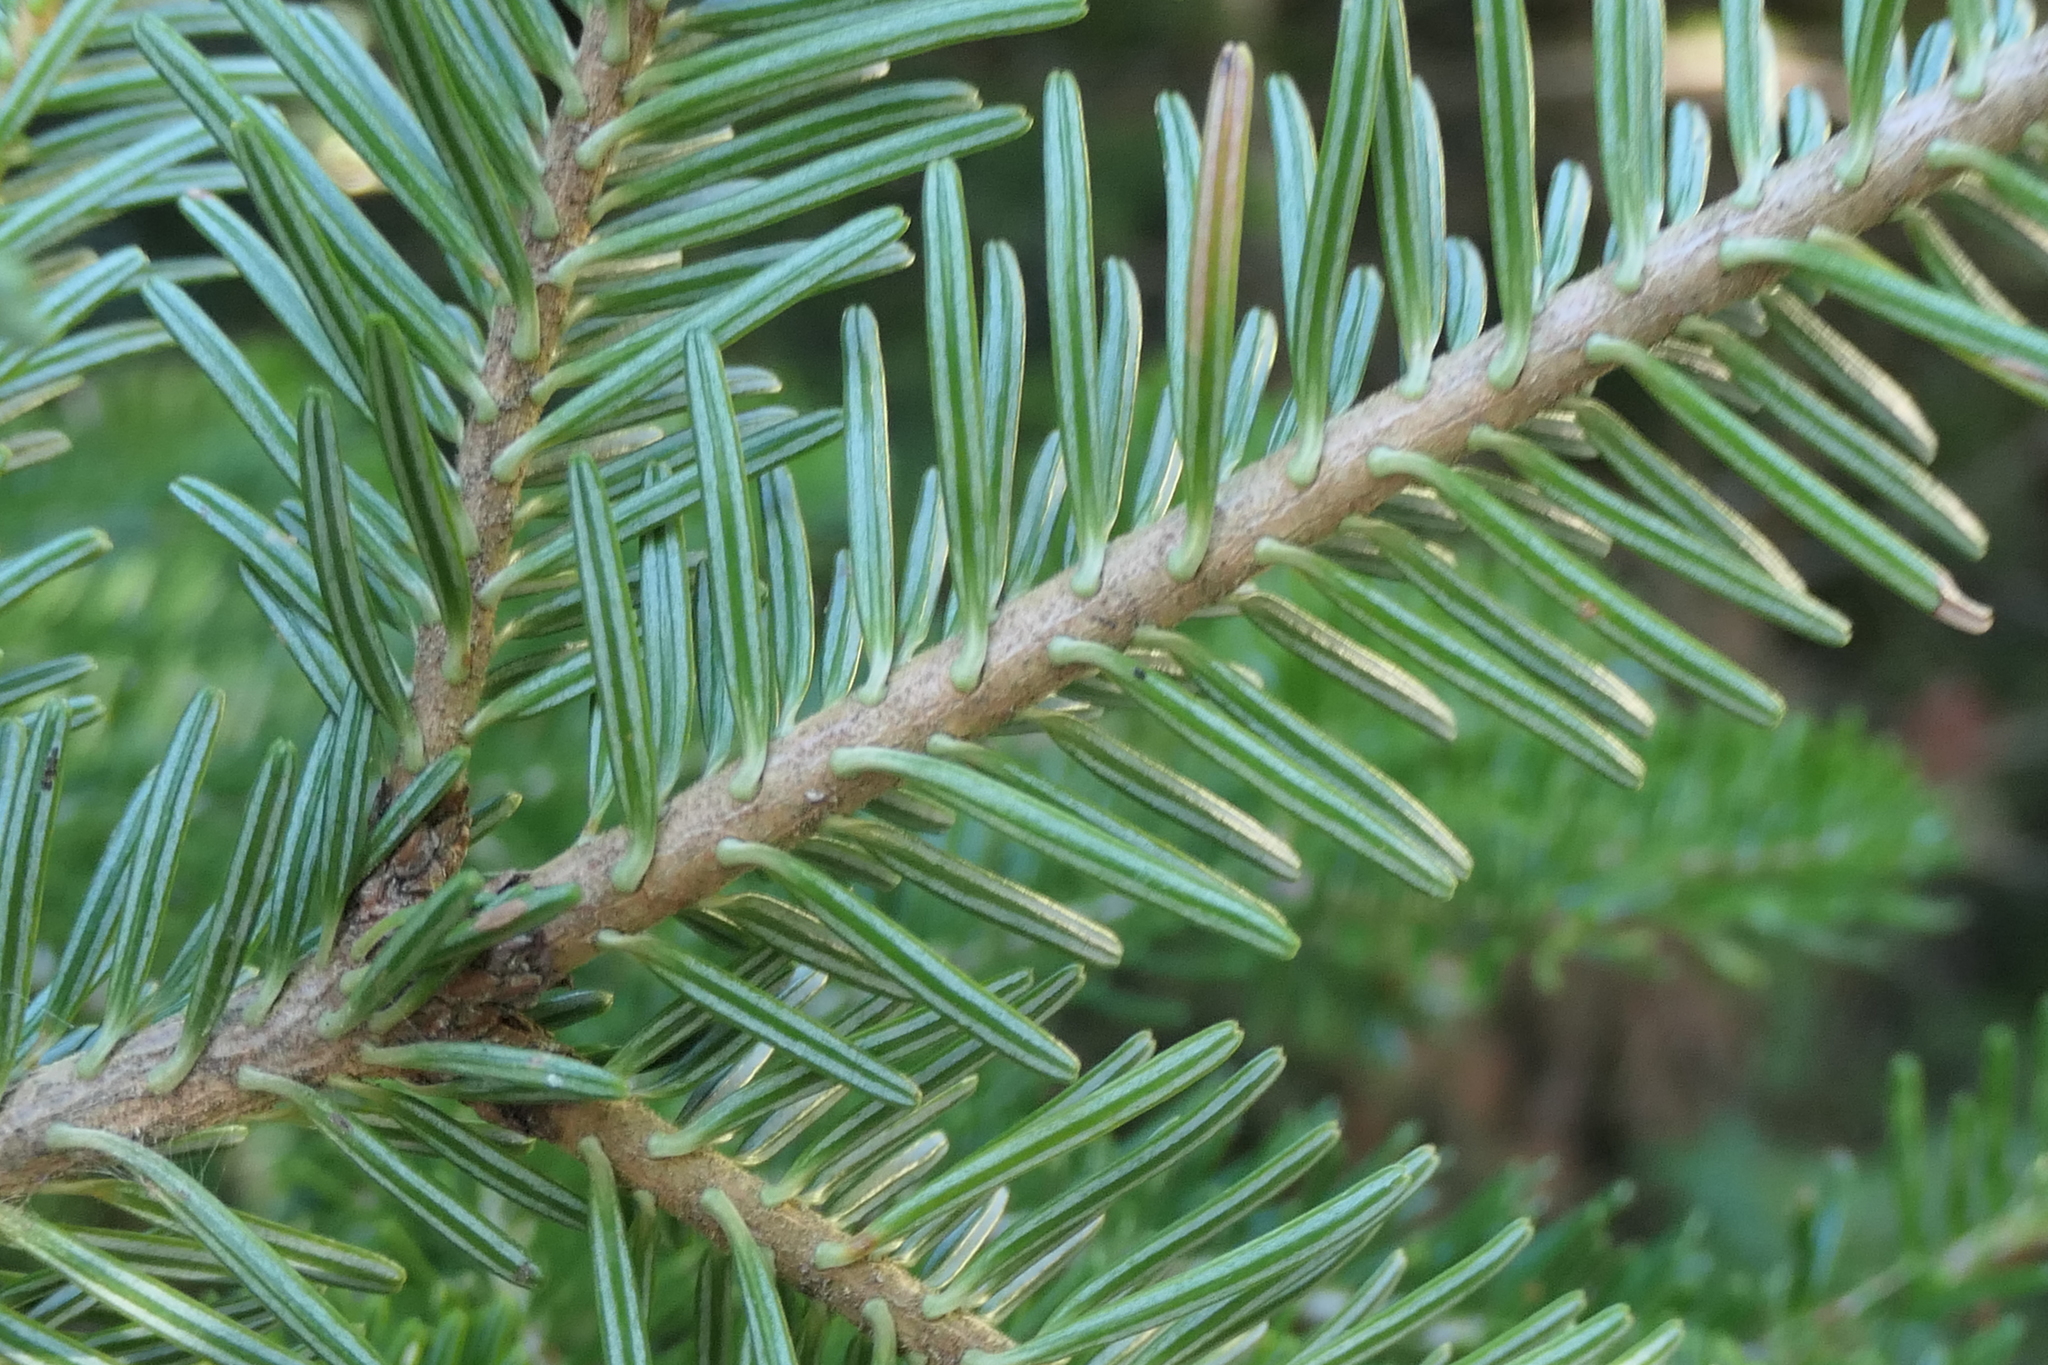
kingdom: Plantae
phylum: Tracheophyta
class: Pinopsida
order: Pinales
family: Pinaceae
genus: Abies
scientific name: Abies alba
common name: Silver fir
